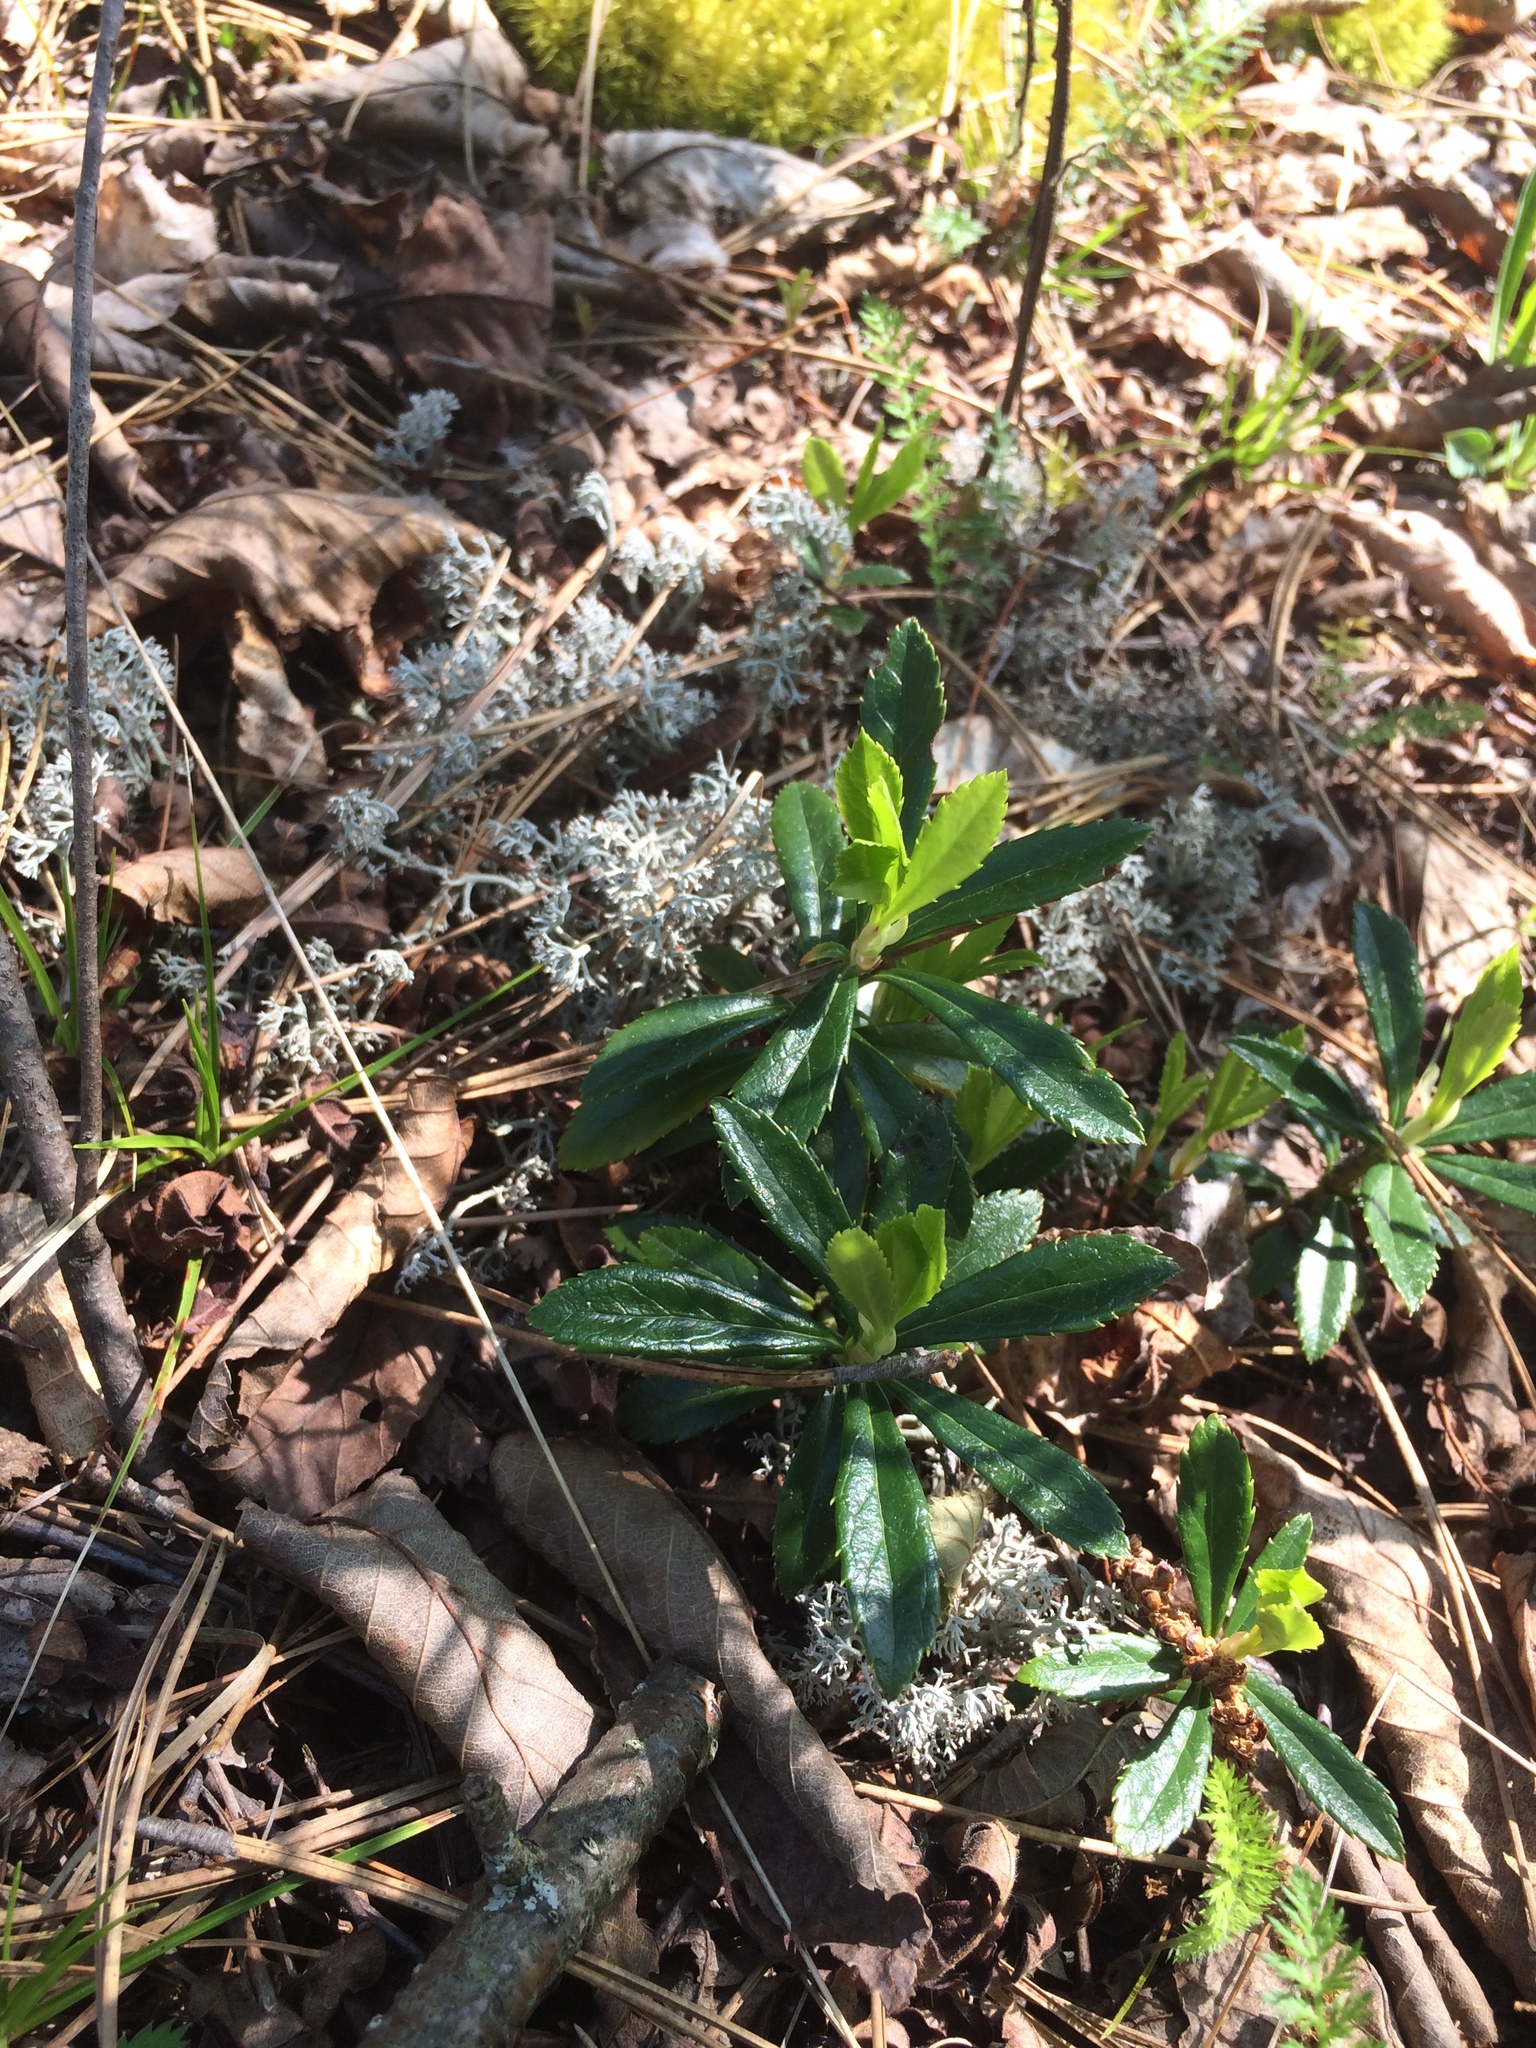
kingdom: Plantae
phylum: Tracheophyta
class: Magnoliopsida
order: Ericales
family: Ericaceae
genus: Chimaphila
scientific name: Chimaphila umbellata
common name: Pipsissewa
